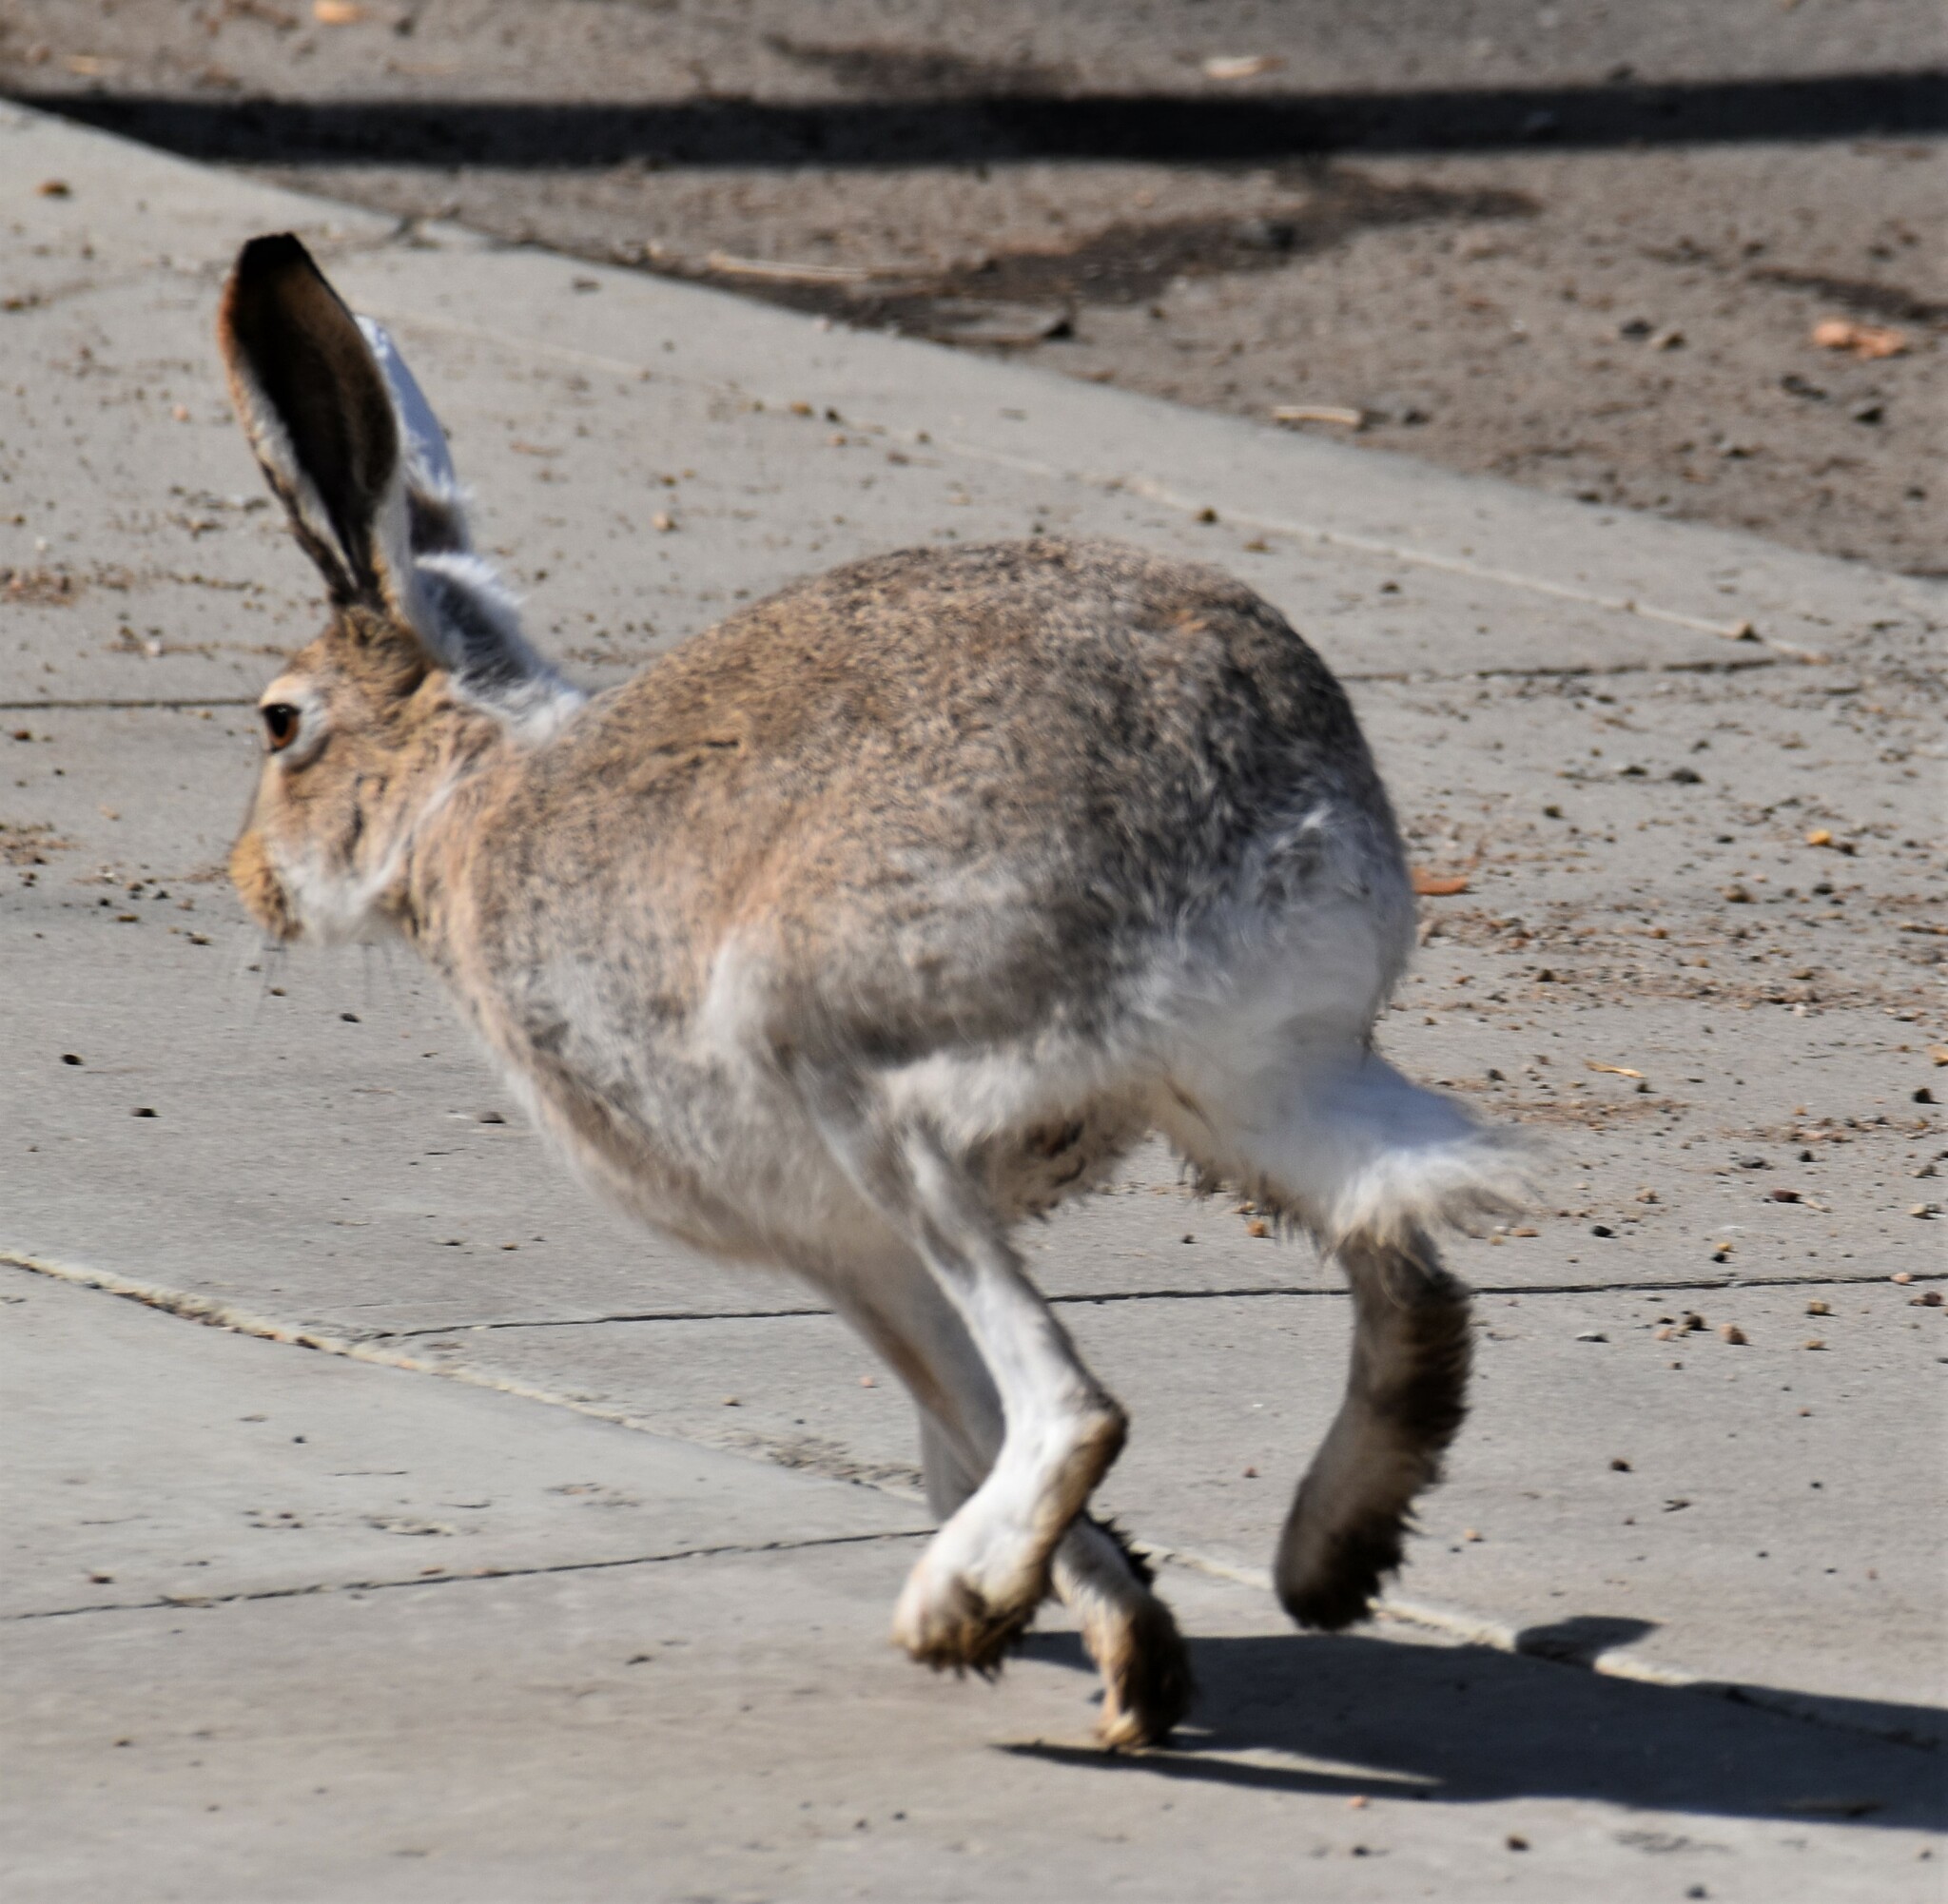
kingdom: Animalia
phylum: Chordata
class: Mammalia
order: Lagomorpha
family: Leporidae
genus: Lepus
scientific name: Lepus townsendii
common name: White-tailed jackrabbit
